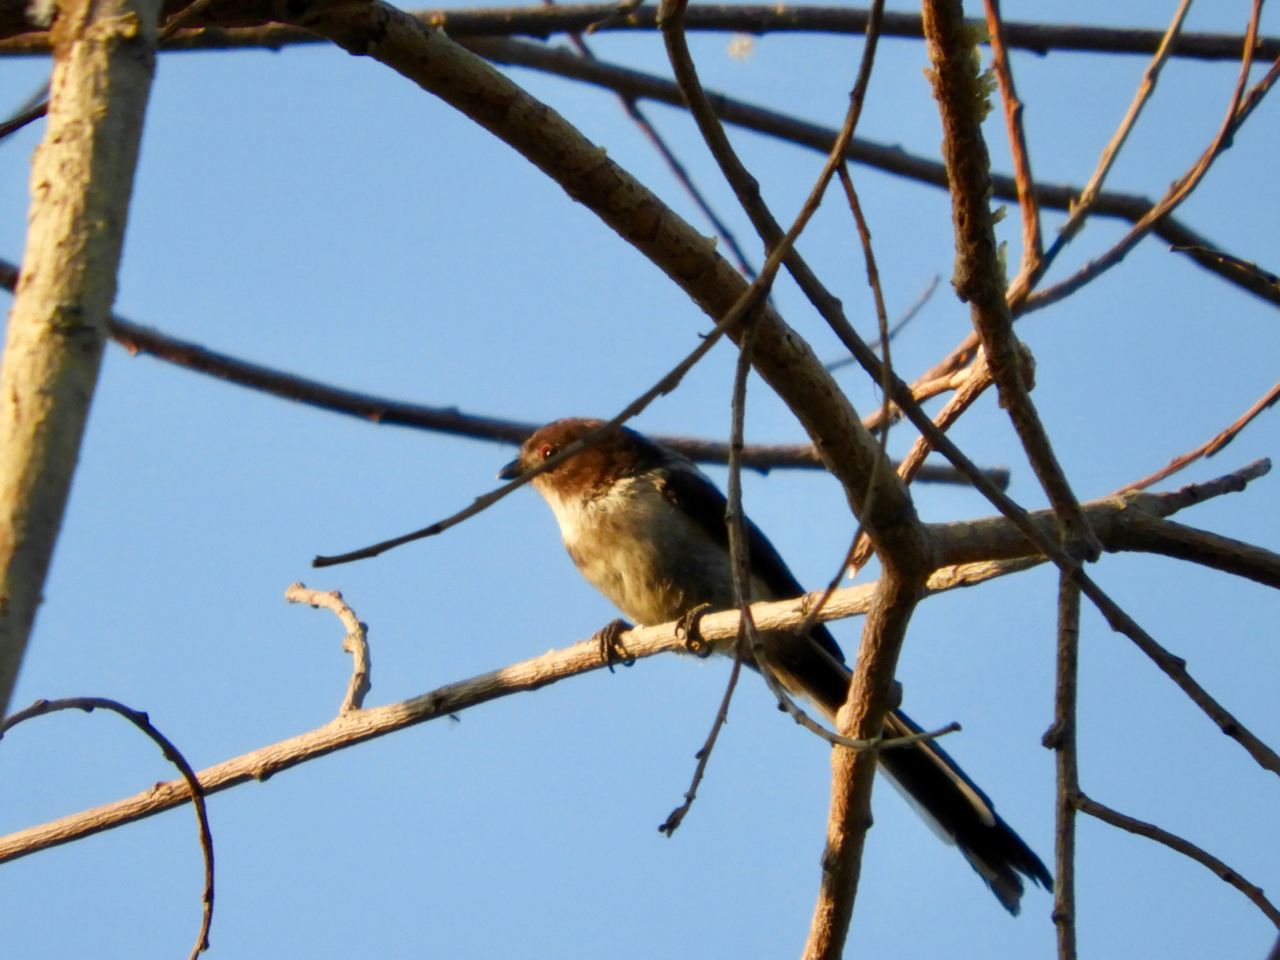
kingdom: Animalia
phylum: Chordata
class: Aves
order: Passeriformes
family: Aegithalidae
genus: Aegithalos
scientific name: Aegithalos caudatus
